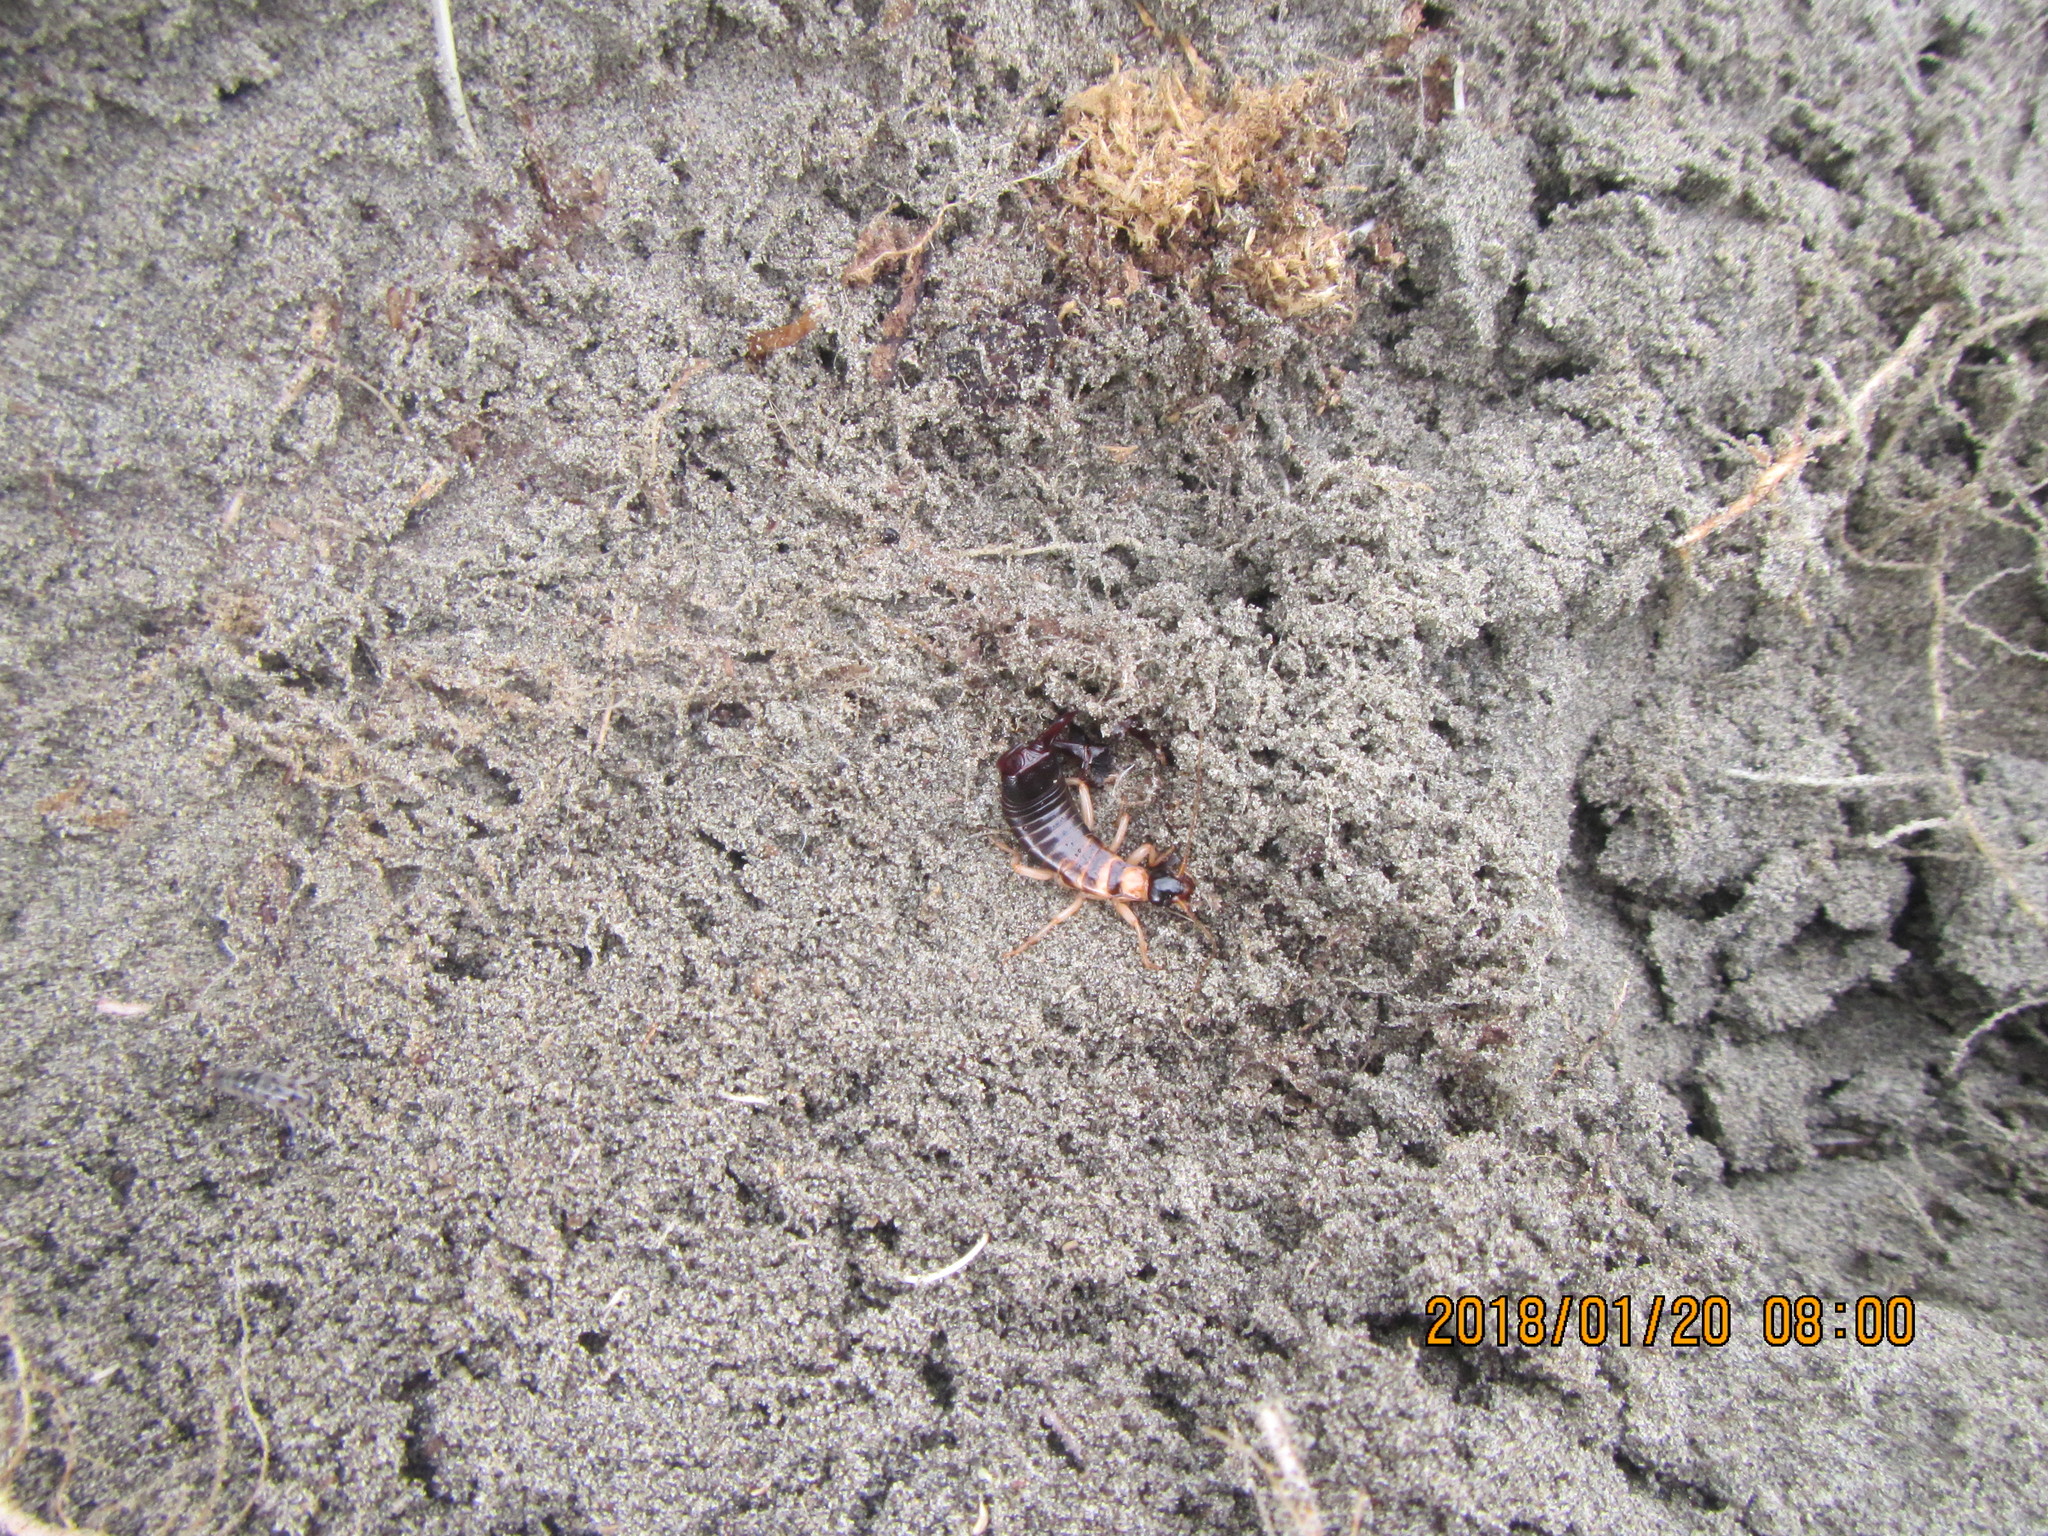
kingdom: Animalia
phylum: Arthropoda
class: Insecta
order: Dermaptera
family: Anisolabididae
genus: Anisolabis
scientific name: Anisolabis littorea
